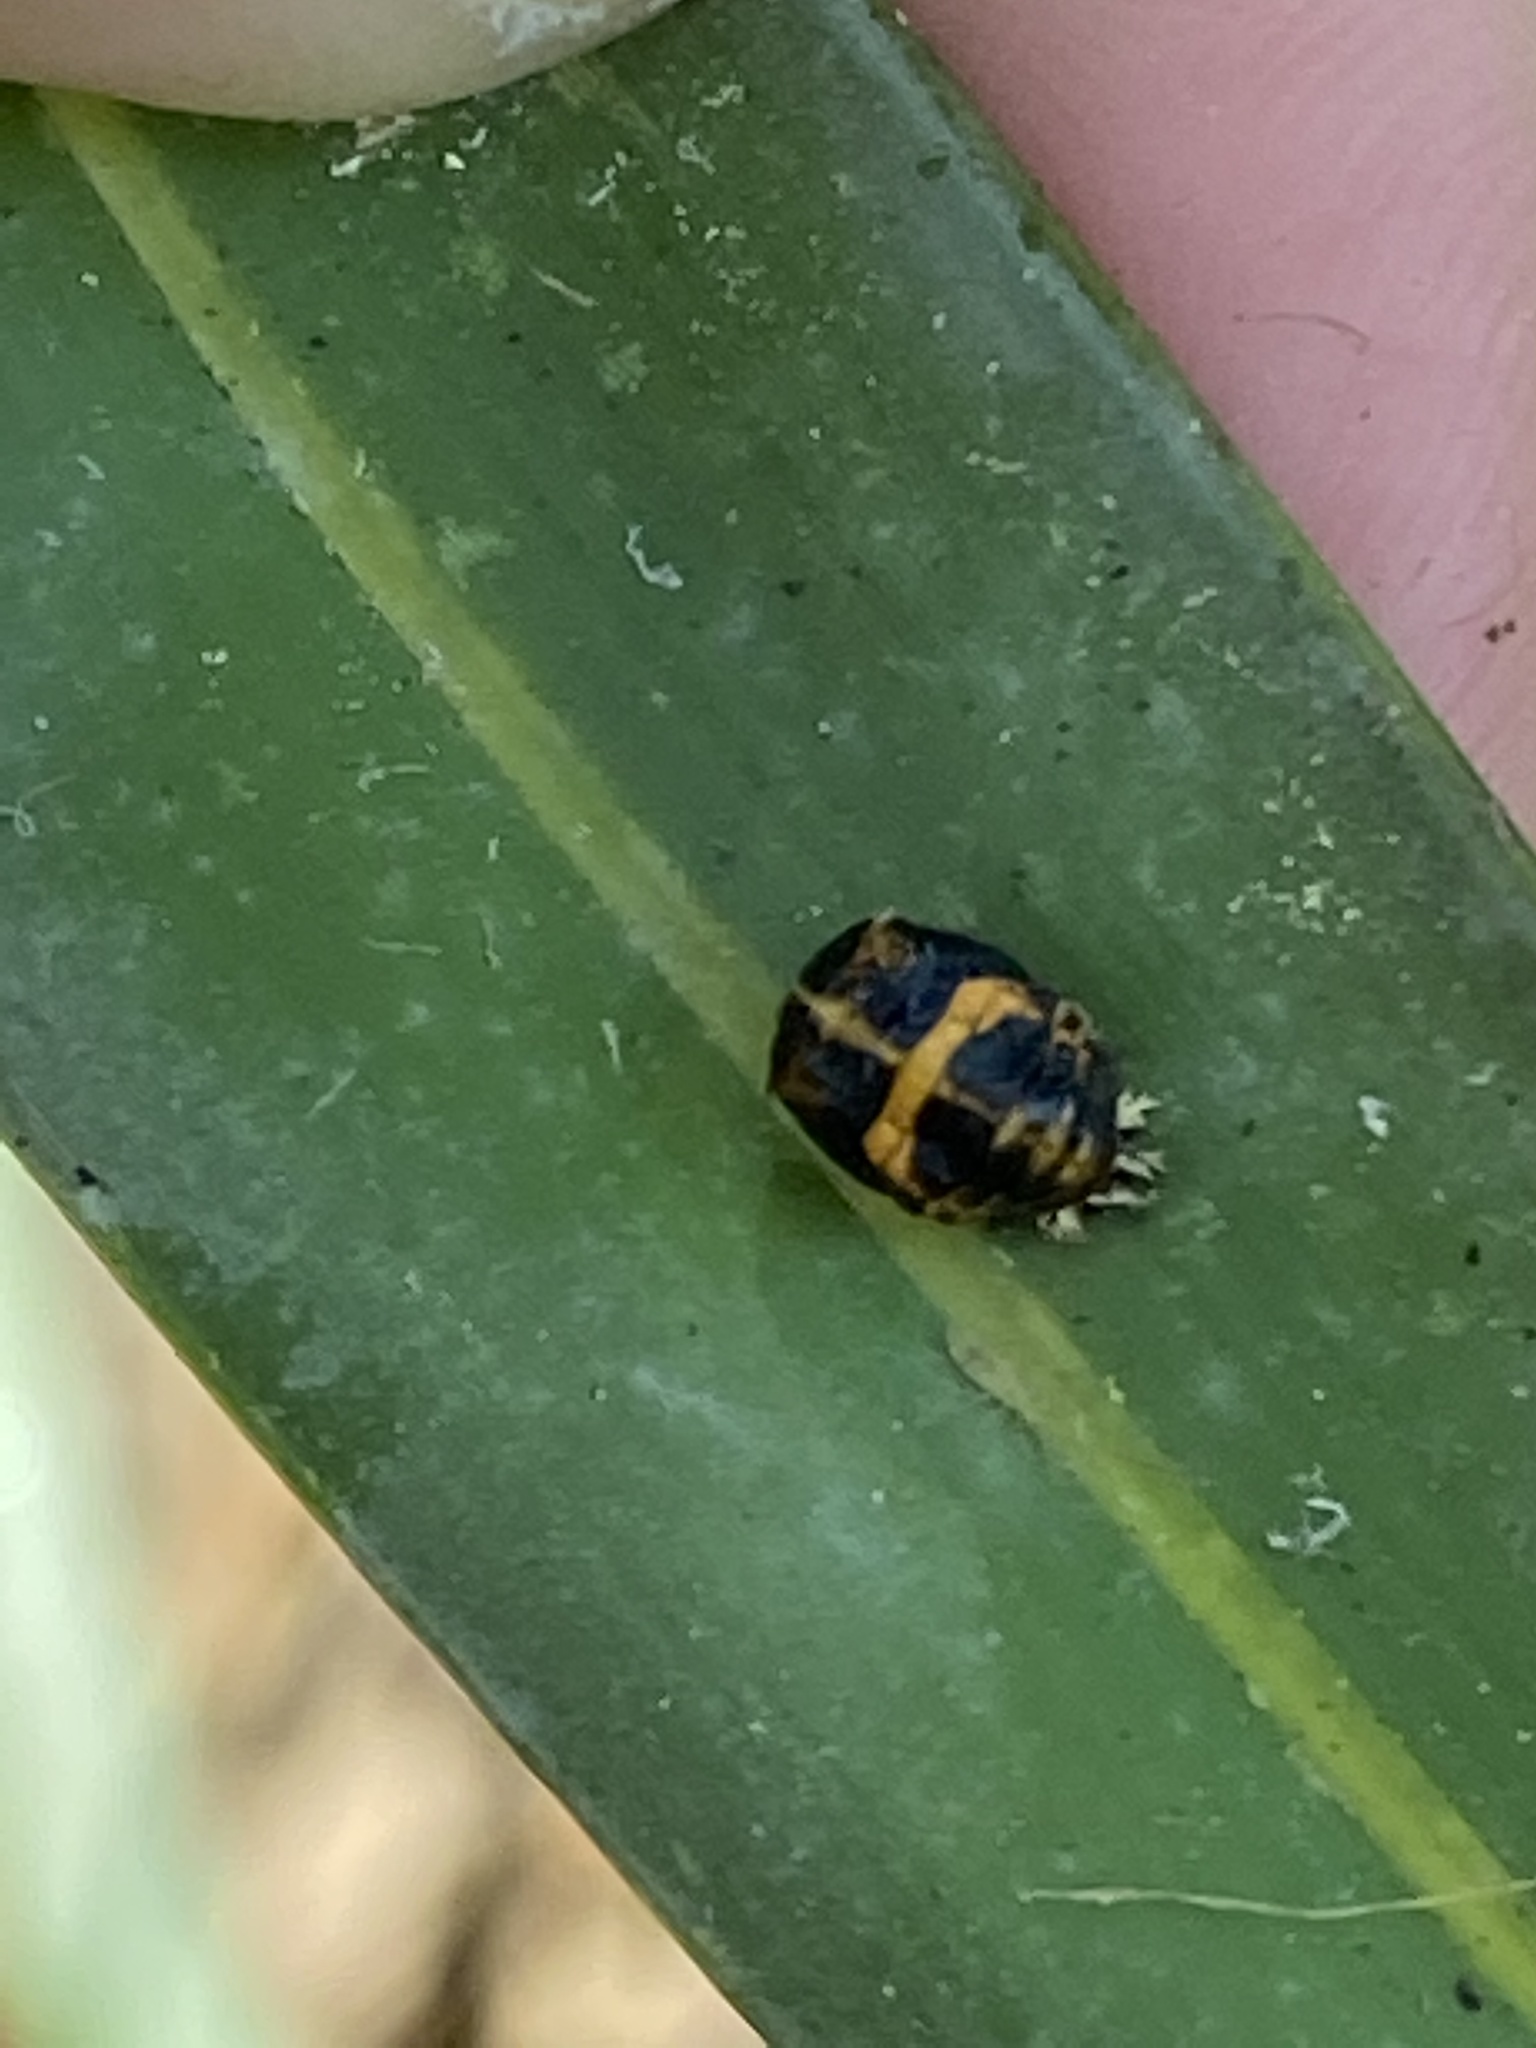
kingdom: Animalia
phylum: Arthropoda
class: Insecta
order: Coleoptera
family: Coccinellidae
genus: Harmonia
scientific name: Harmonia axyridis
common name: Harlequin ladybird
